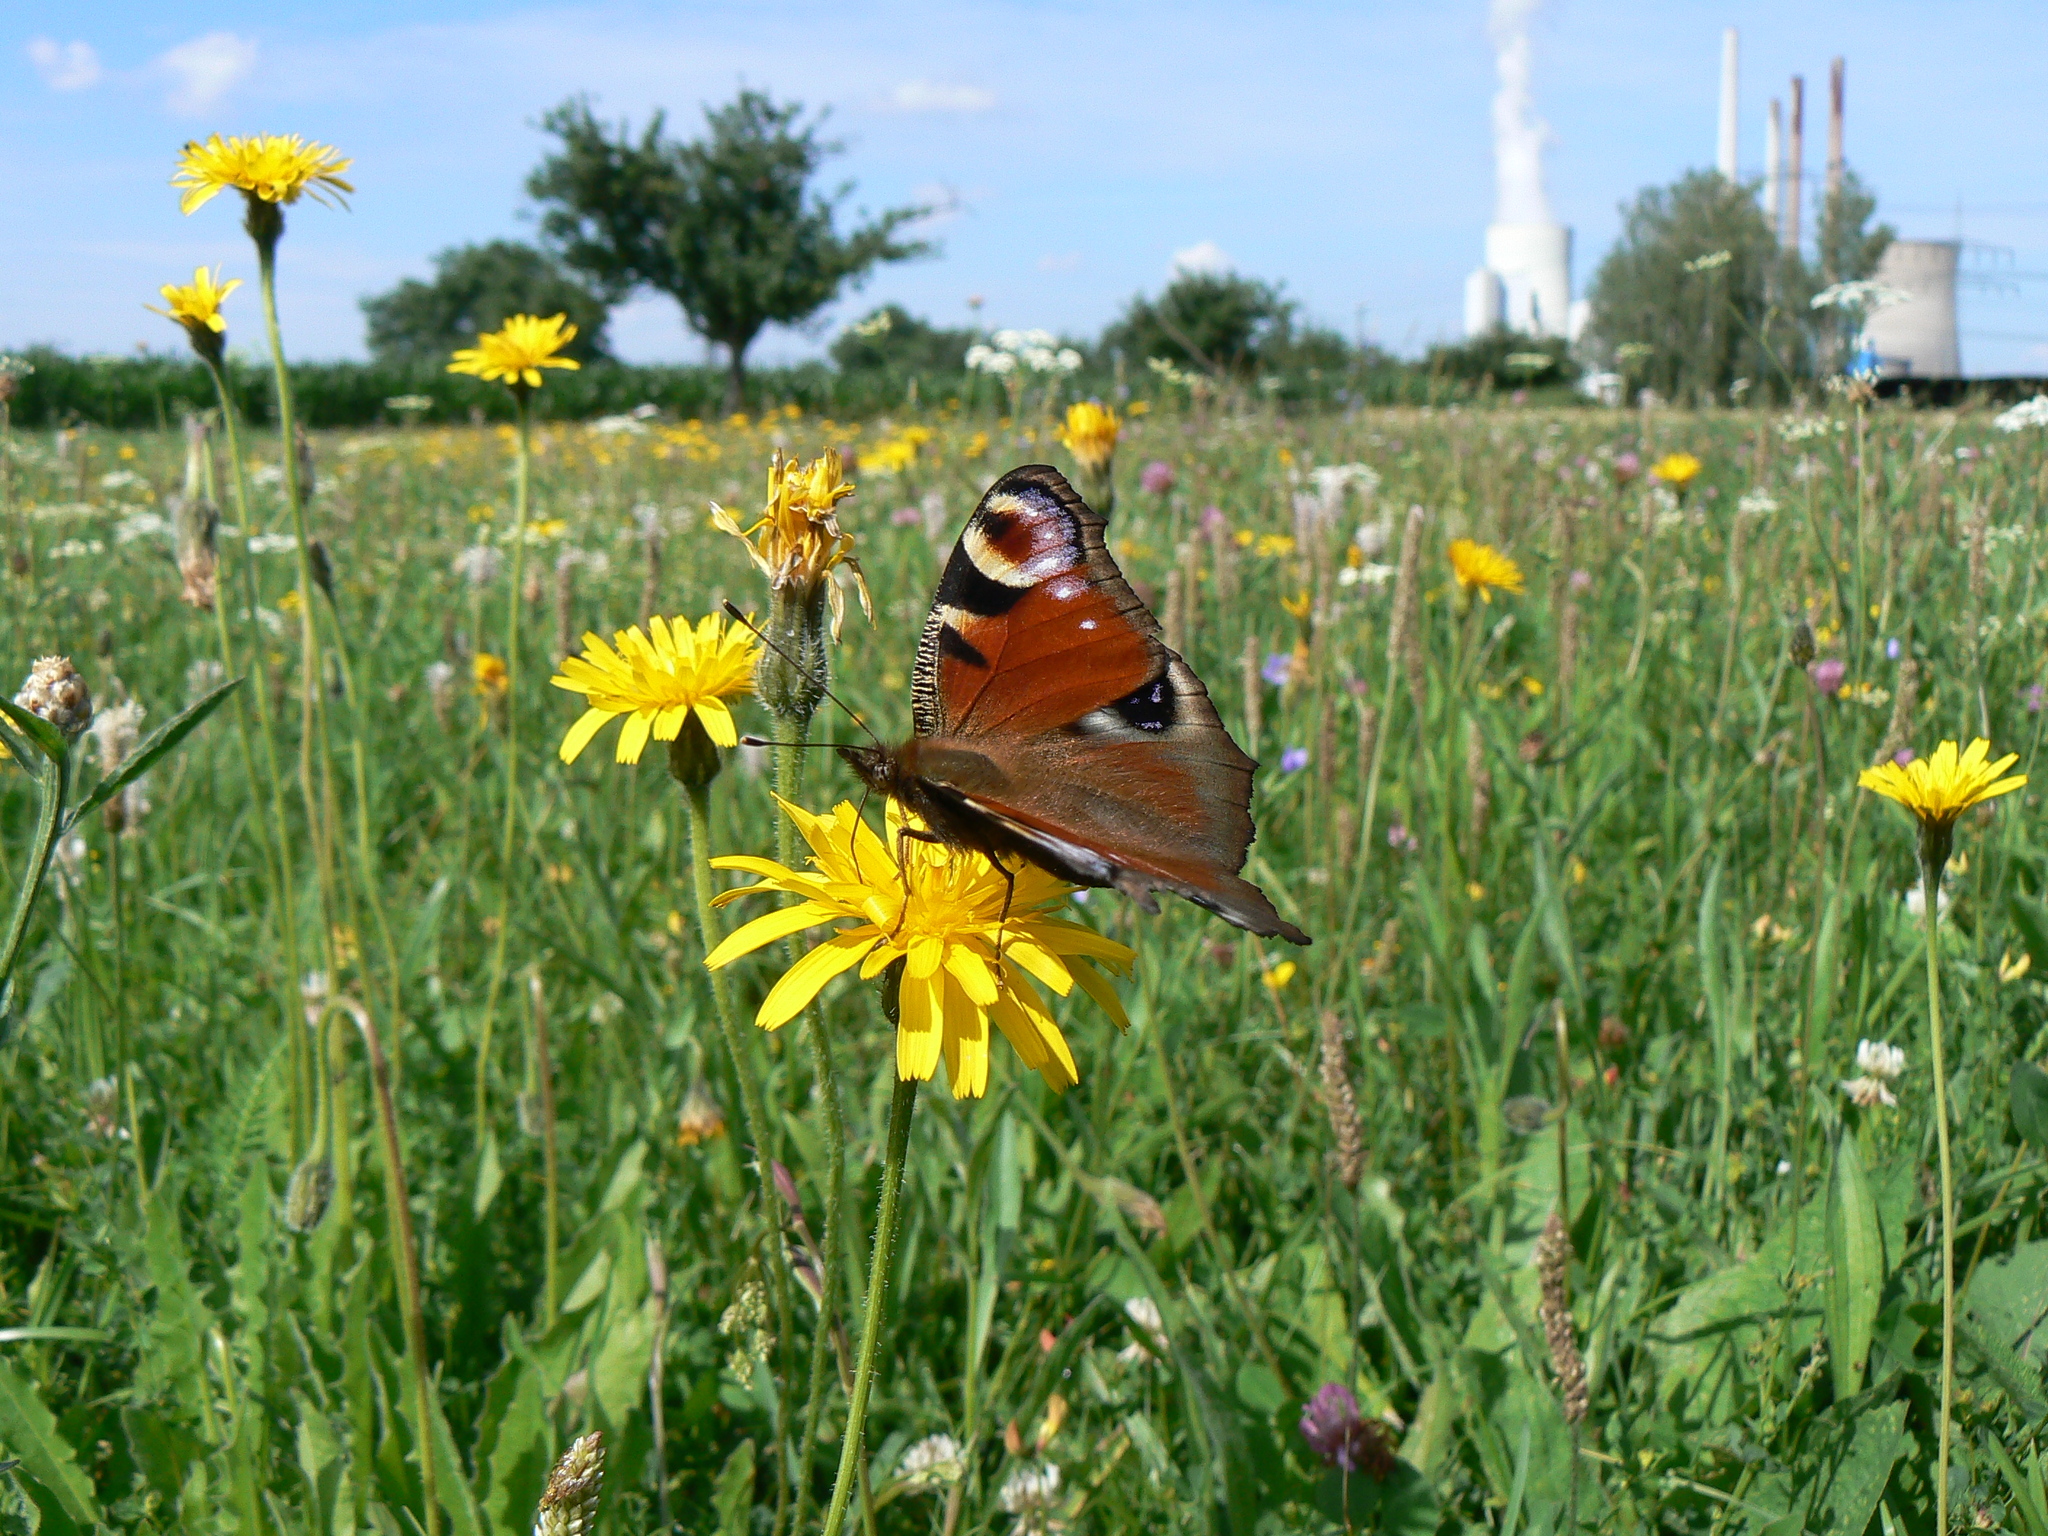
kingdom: Animalia
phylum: Arthropoda
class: Insecta
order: Lepidoptera
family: Nymphalidae
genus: Aglais
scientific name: Aglais io
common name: Peacock
